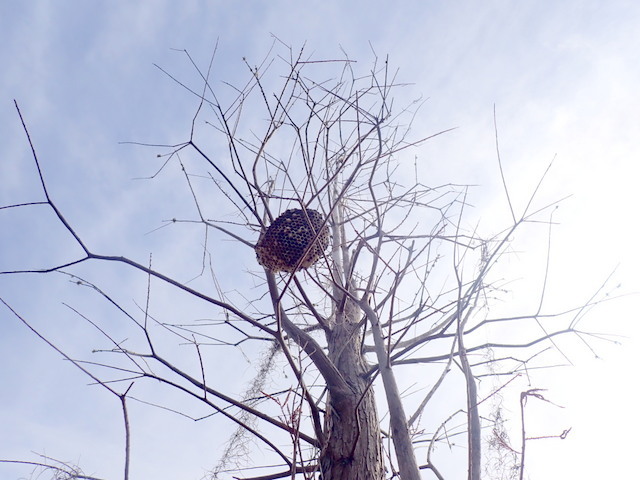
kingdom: Animalia
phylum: Arthropoda
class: Insecta
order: Hymenoptera
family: Vespidae
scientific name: Vespidae
